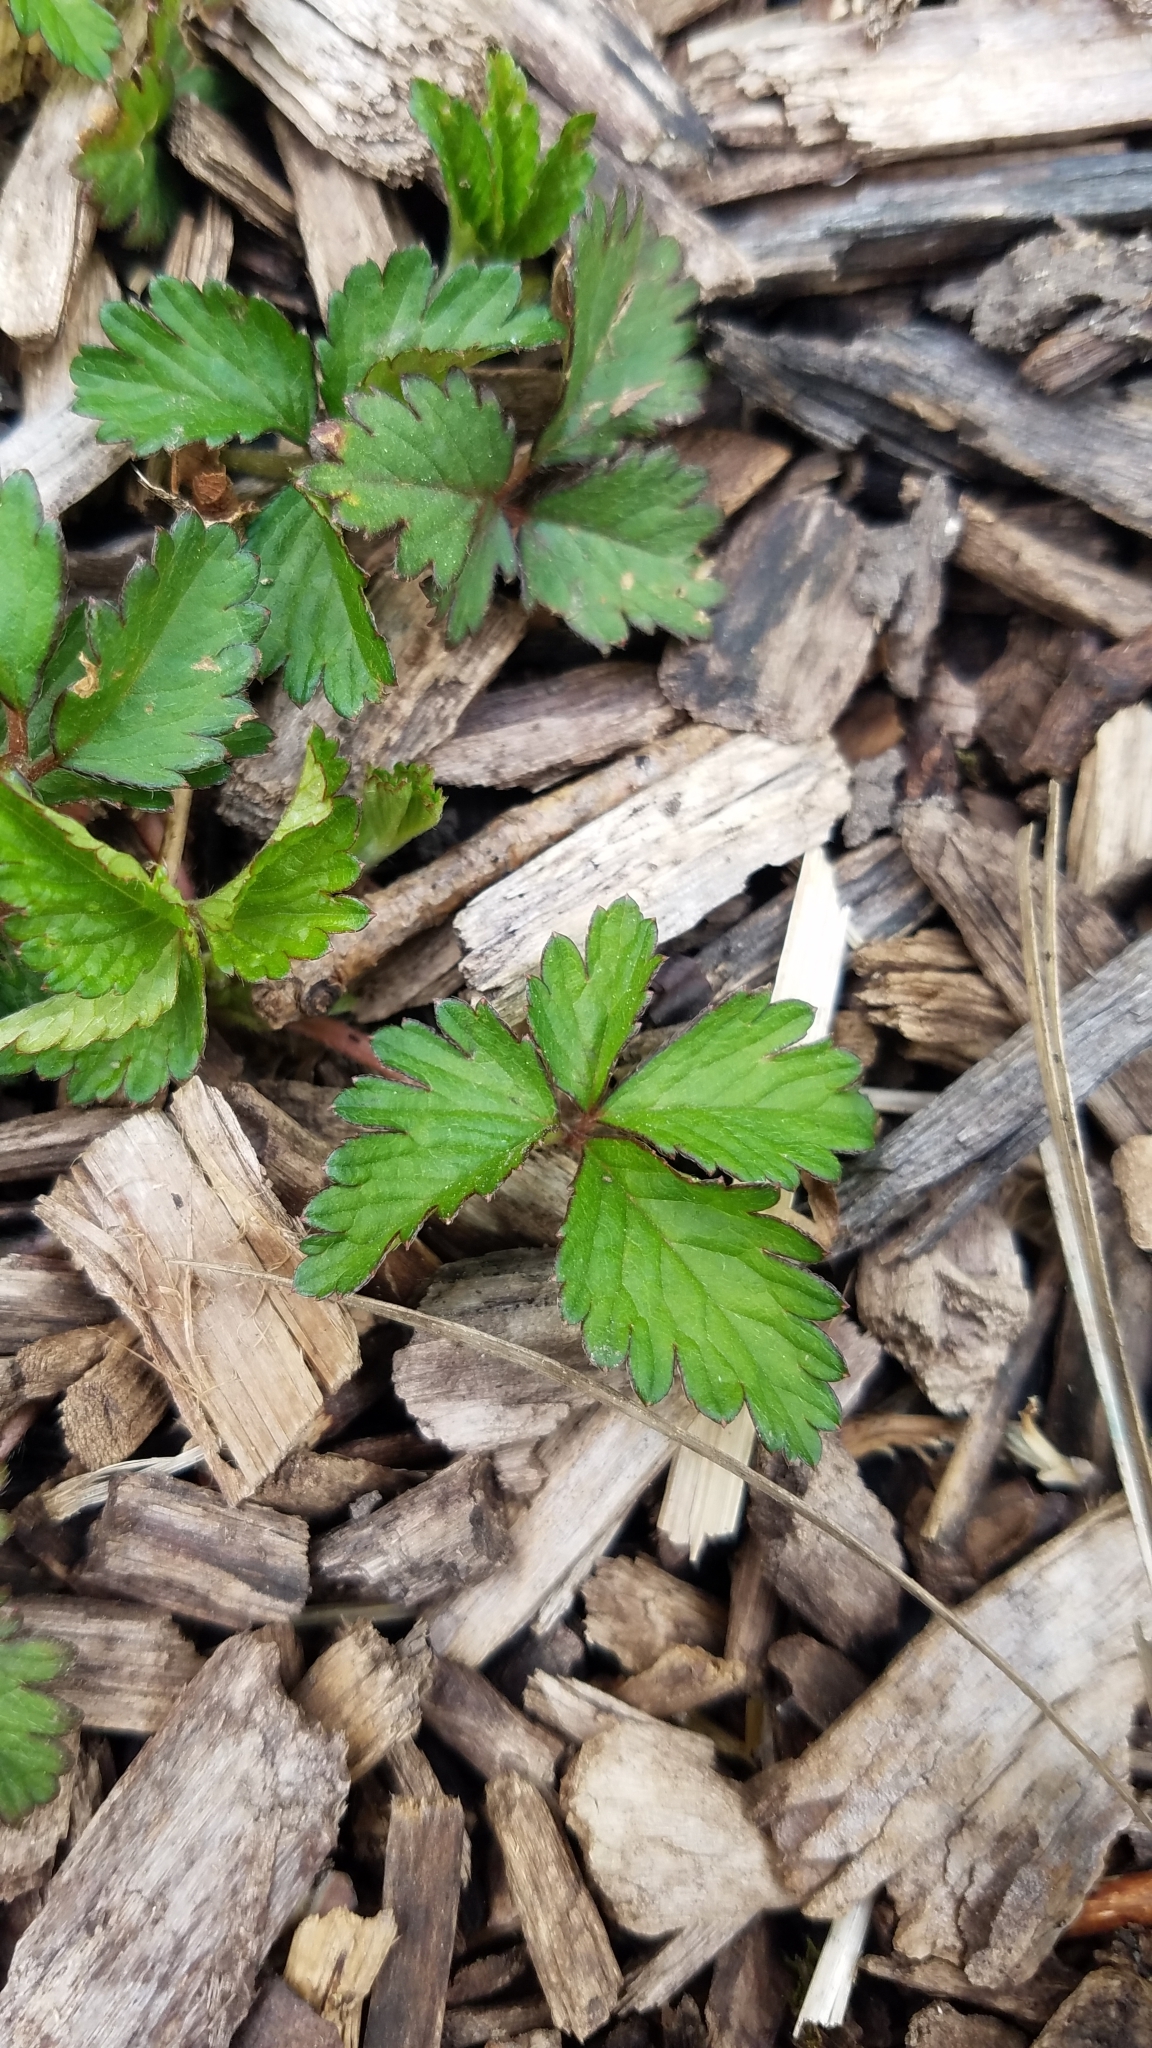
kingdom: Plantae
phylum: Tracheophyta
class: Magnoliopsida
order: Rosales
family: Rosaceae
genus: Potentilla
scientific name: Potentilla indica
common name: Yellow-flowered strawberry
